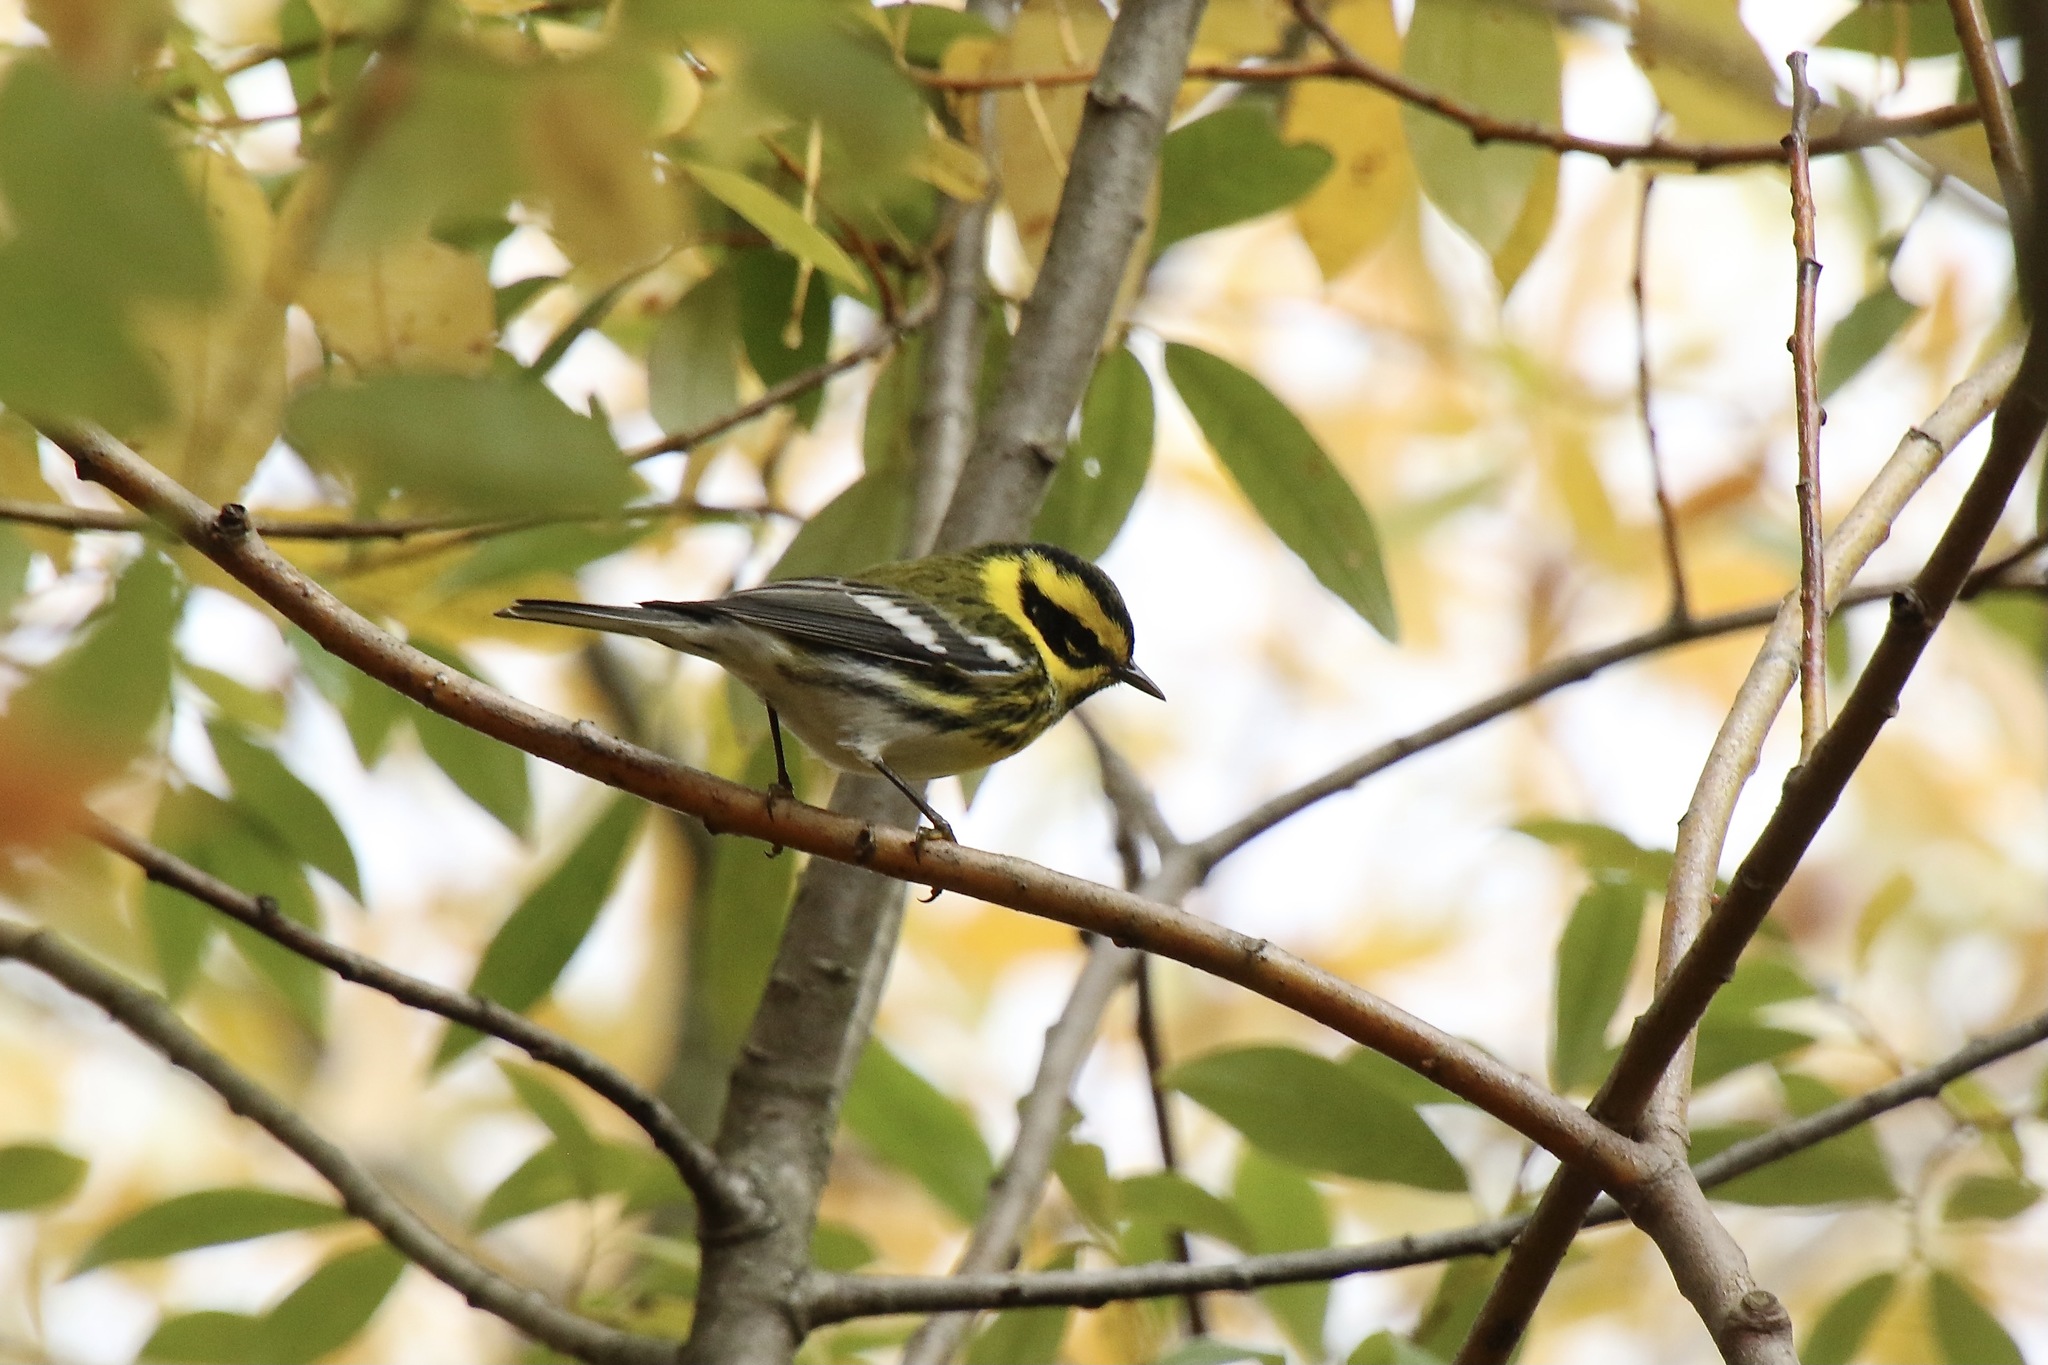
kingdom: Animalia
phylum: Chordata
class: Aves
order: Passeriformes
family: Parulidae
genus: Setophaga
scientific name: Setophaga townsendi
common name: Townsend's warbler
